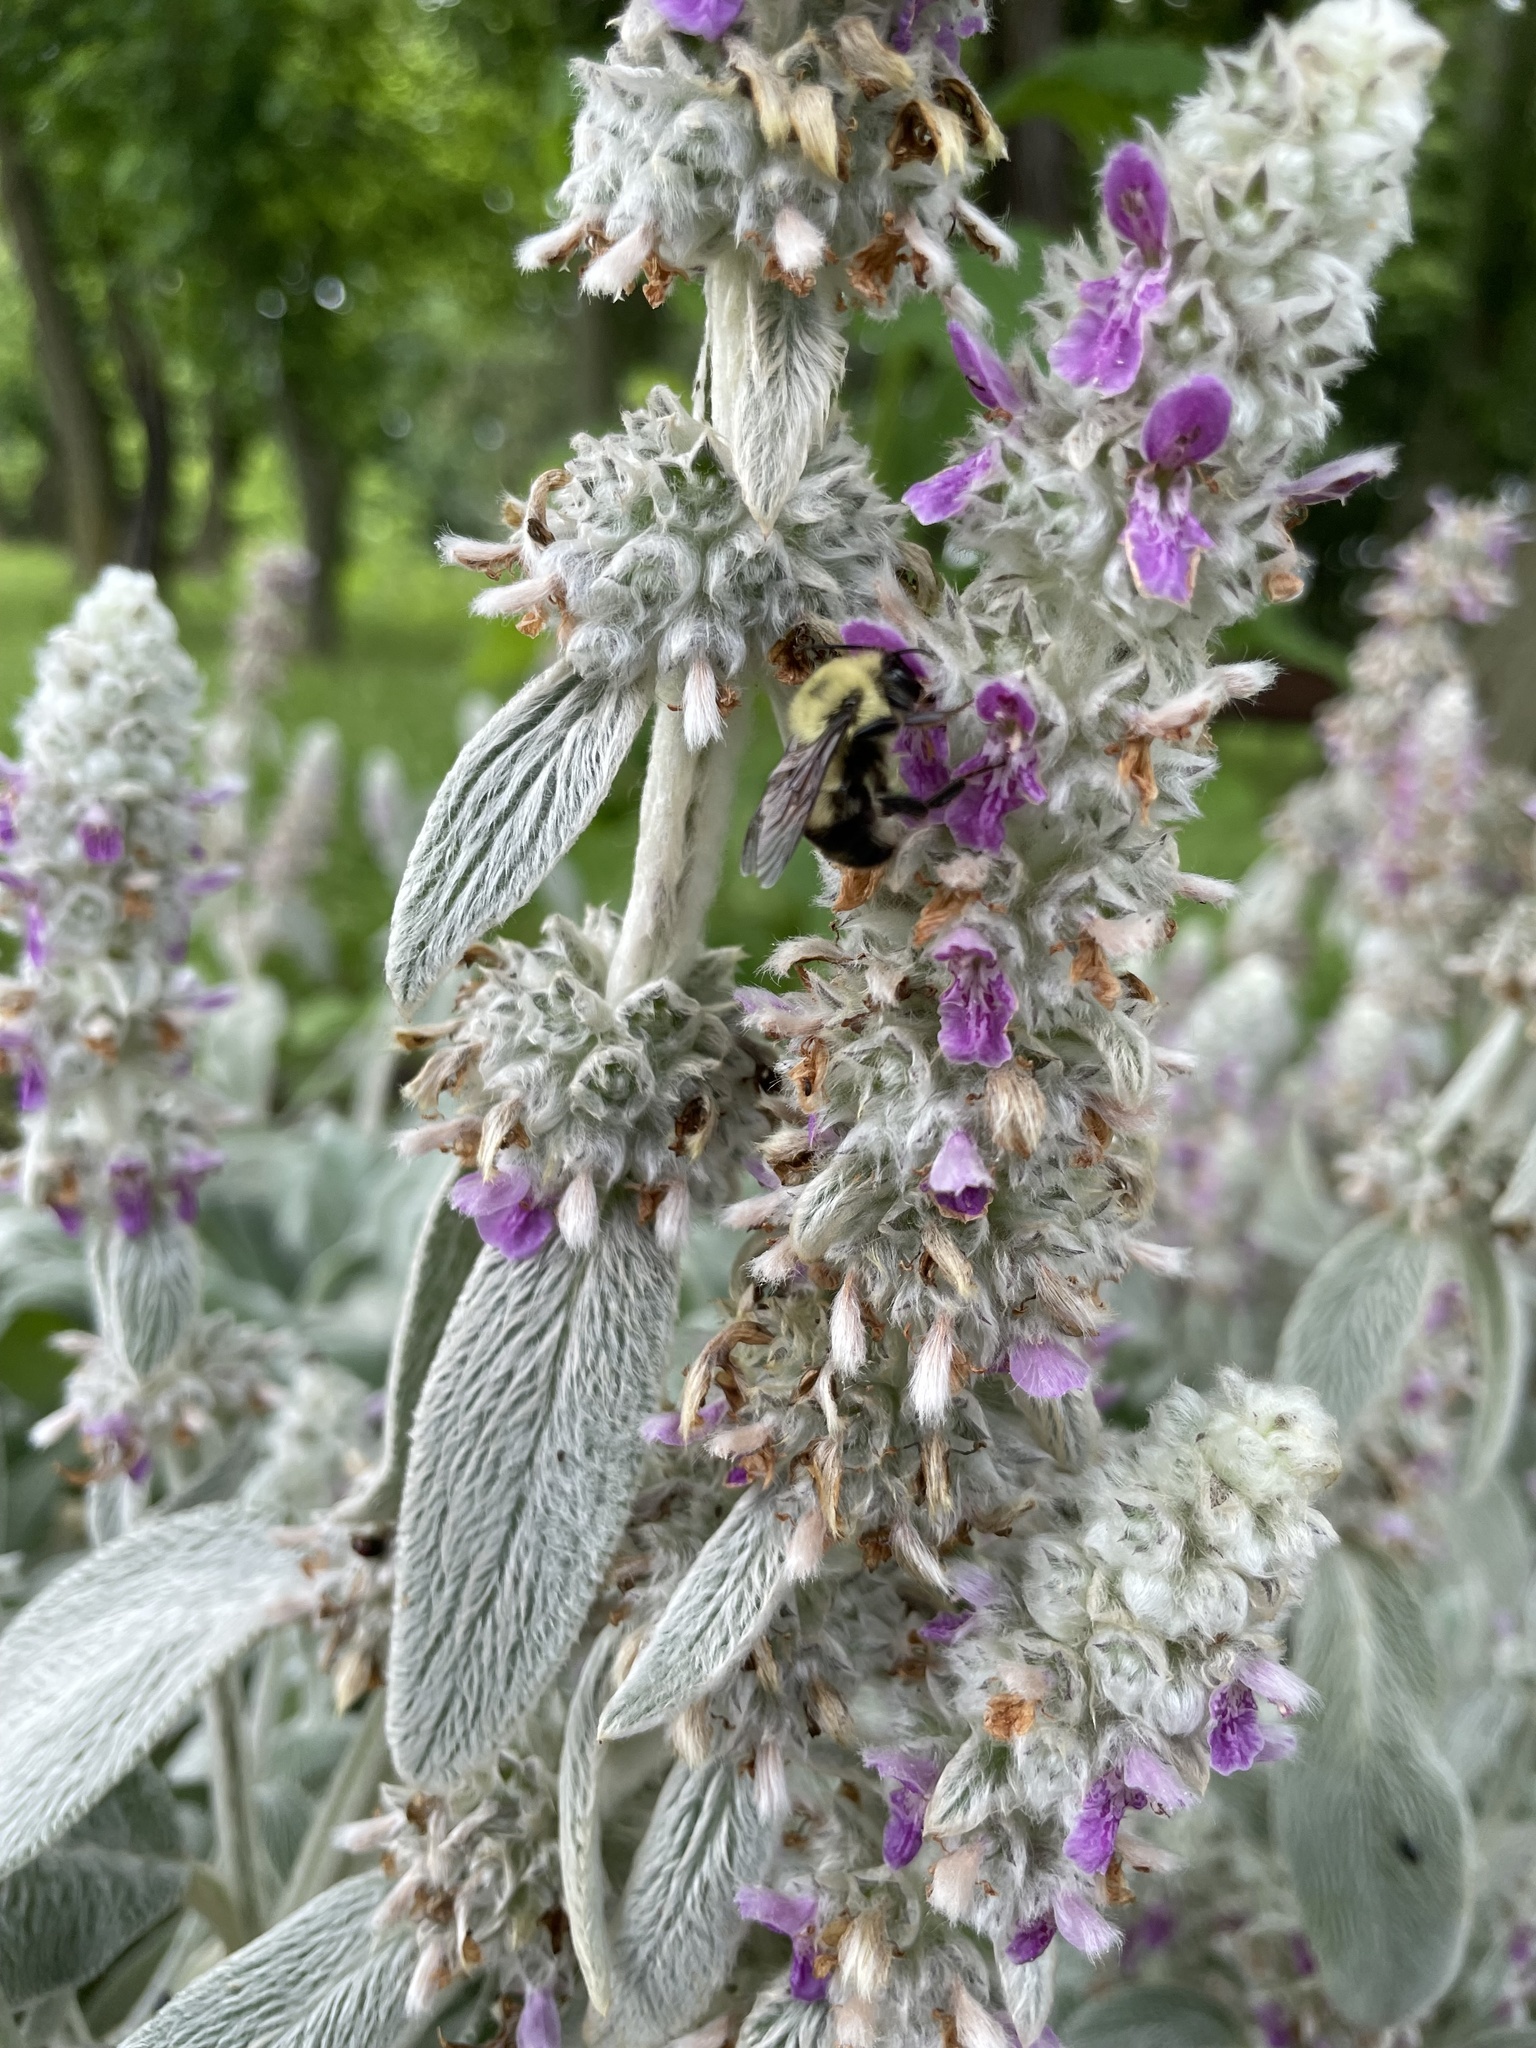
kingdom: Animalia
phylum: Arthropoda
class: Insecta
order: Hymenoptera
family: Apidae
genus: Bombus
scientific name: Bombus bimaculatus
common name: Two-spotted bumble bee
